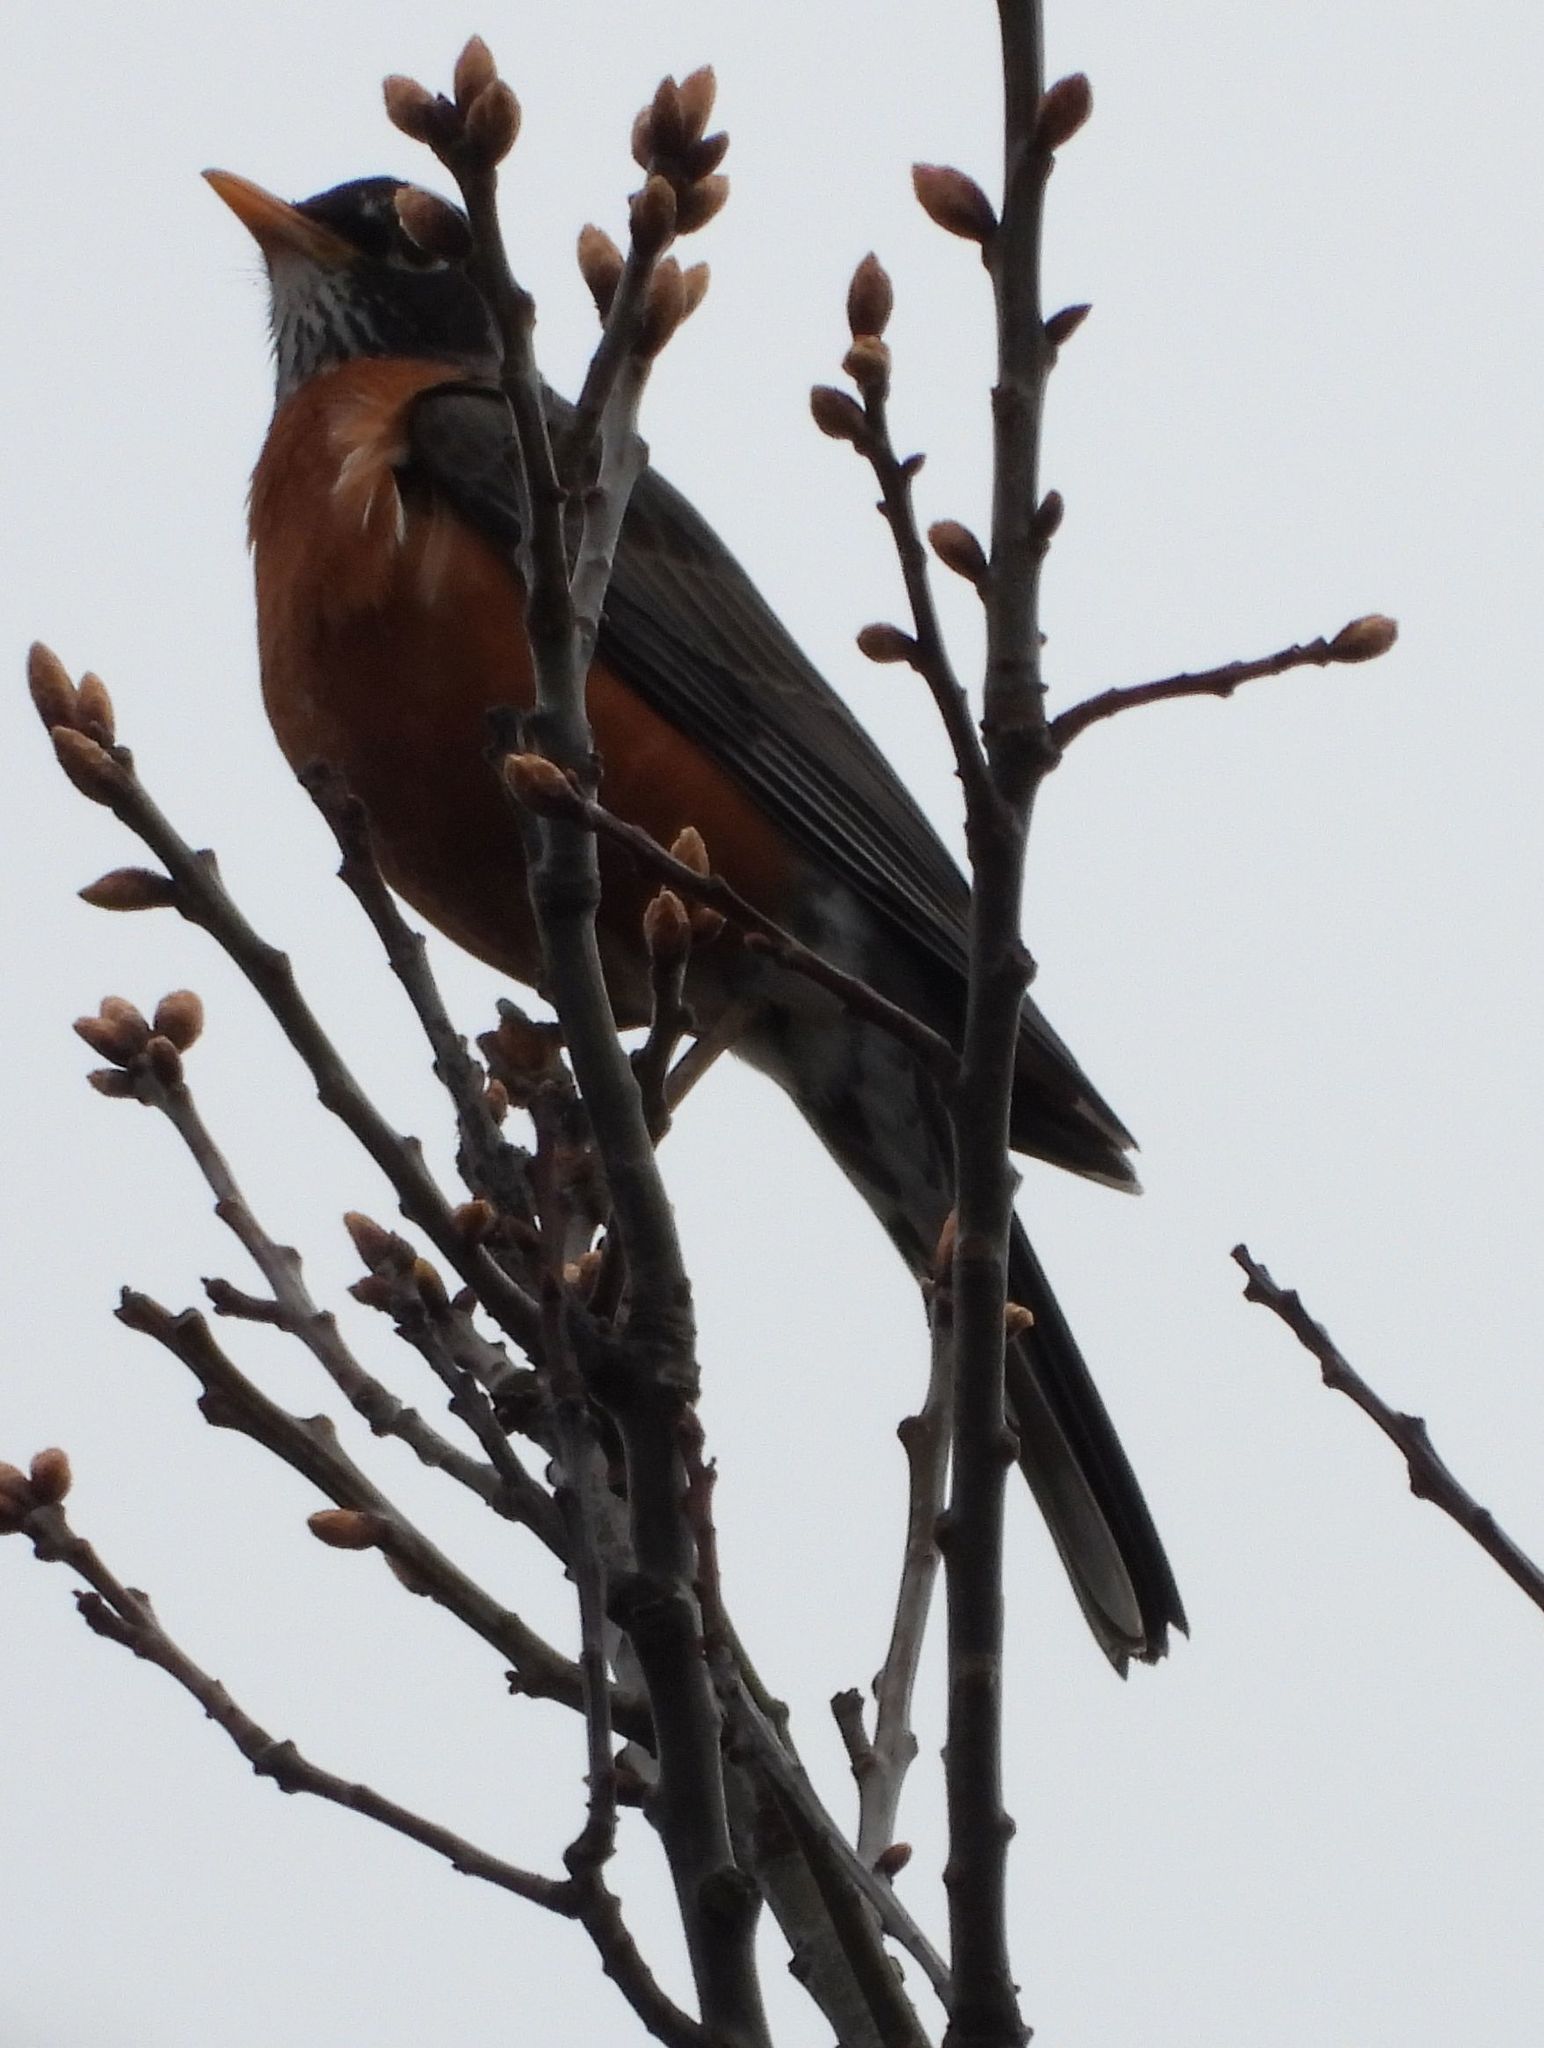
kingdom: Animalia
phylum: Chordata
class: Aves
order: Passeriformes
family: Turdidae
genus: Turdus
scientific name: Turdus migratorius
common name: American robin
